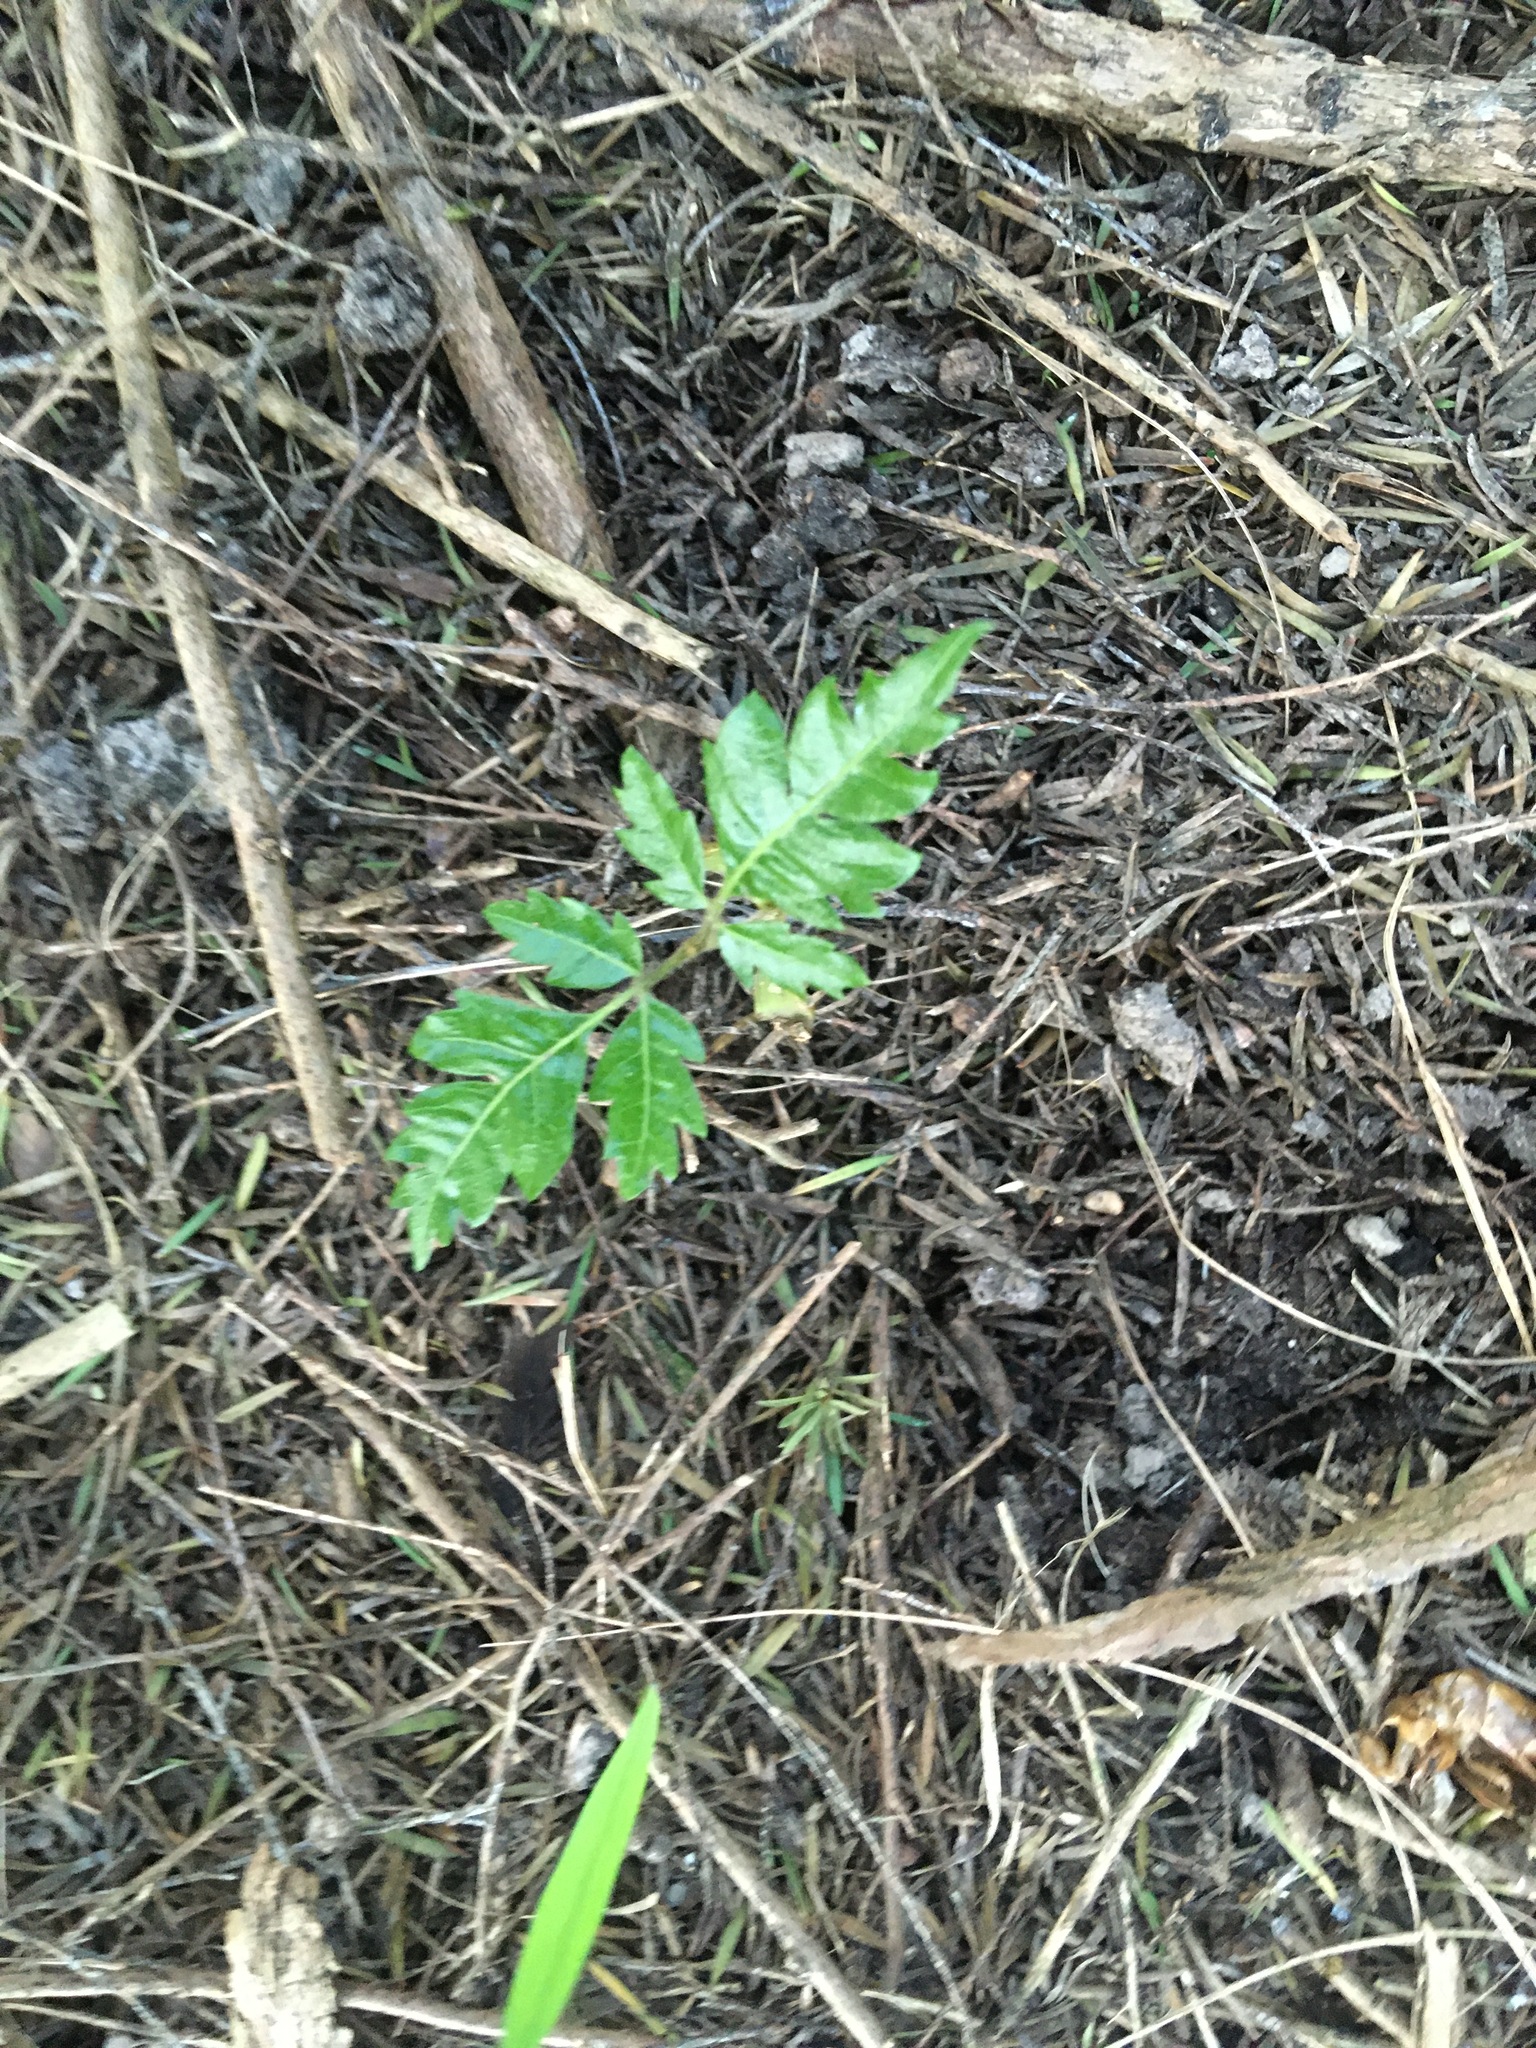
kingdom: Plantae
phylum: Tracheophyta
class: Magnoliopsida
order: Sapindales
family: Sapindaceae
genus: Alectryon
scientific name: Alectryon excelsus
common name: Three kings titoki
